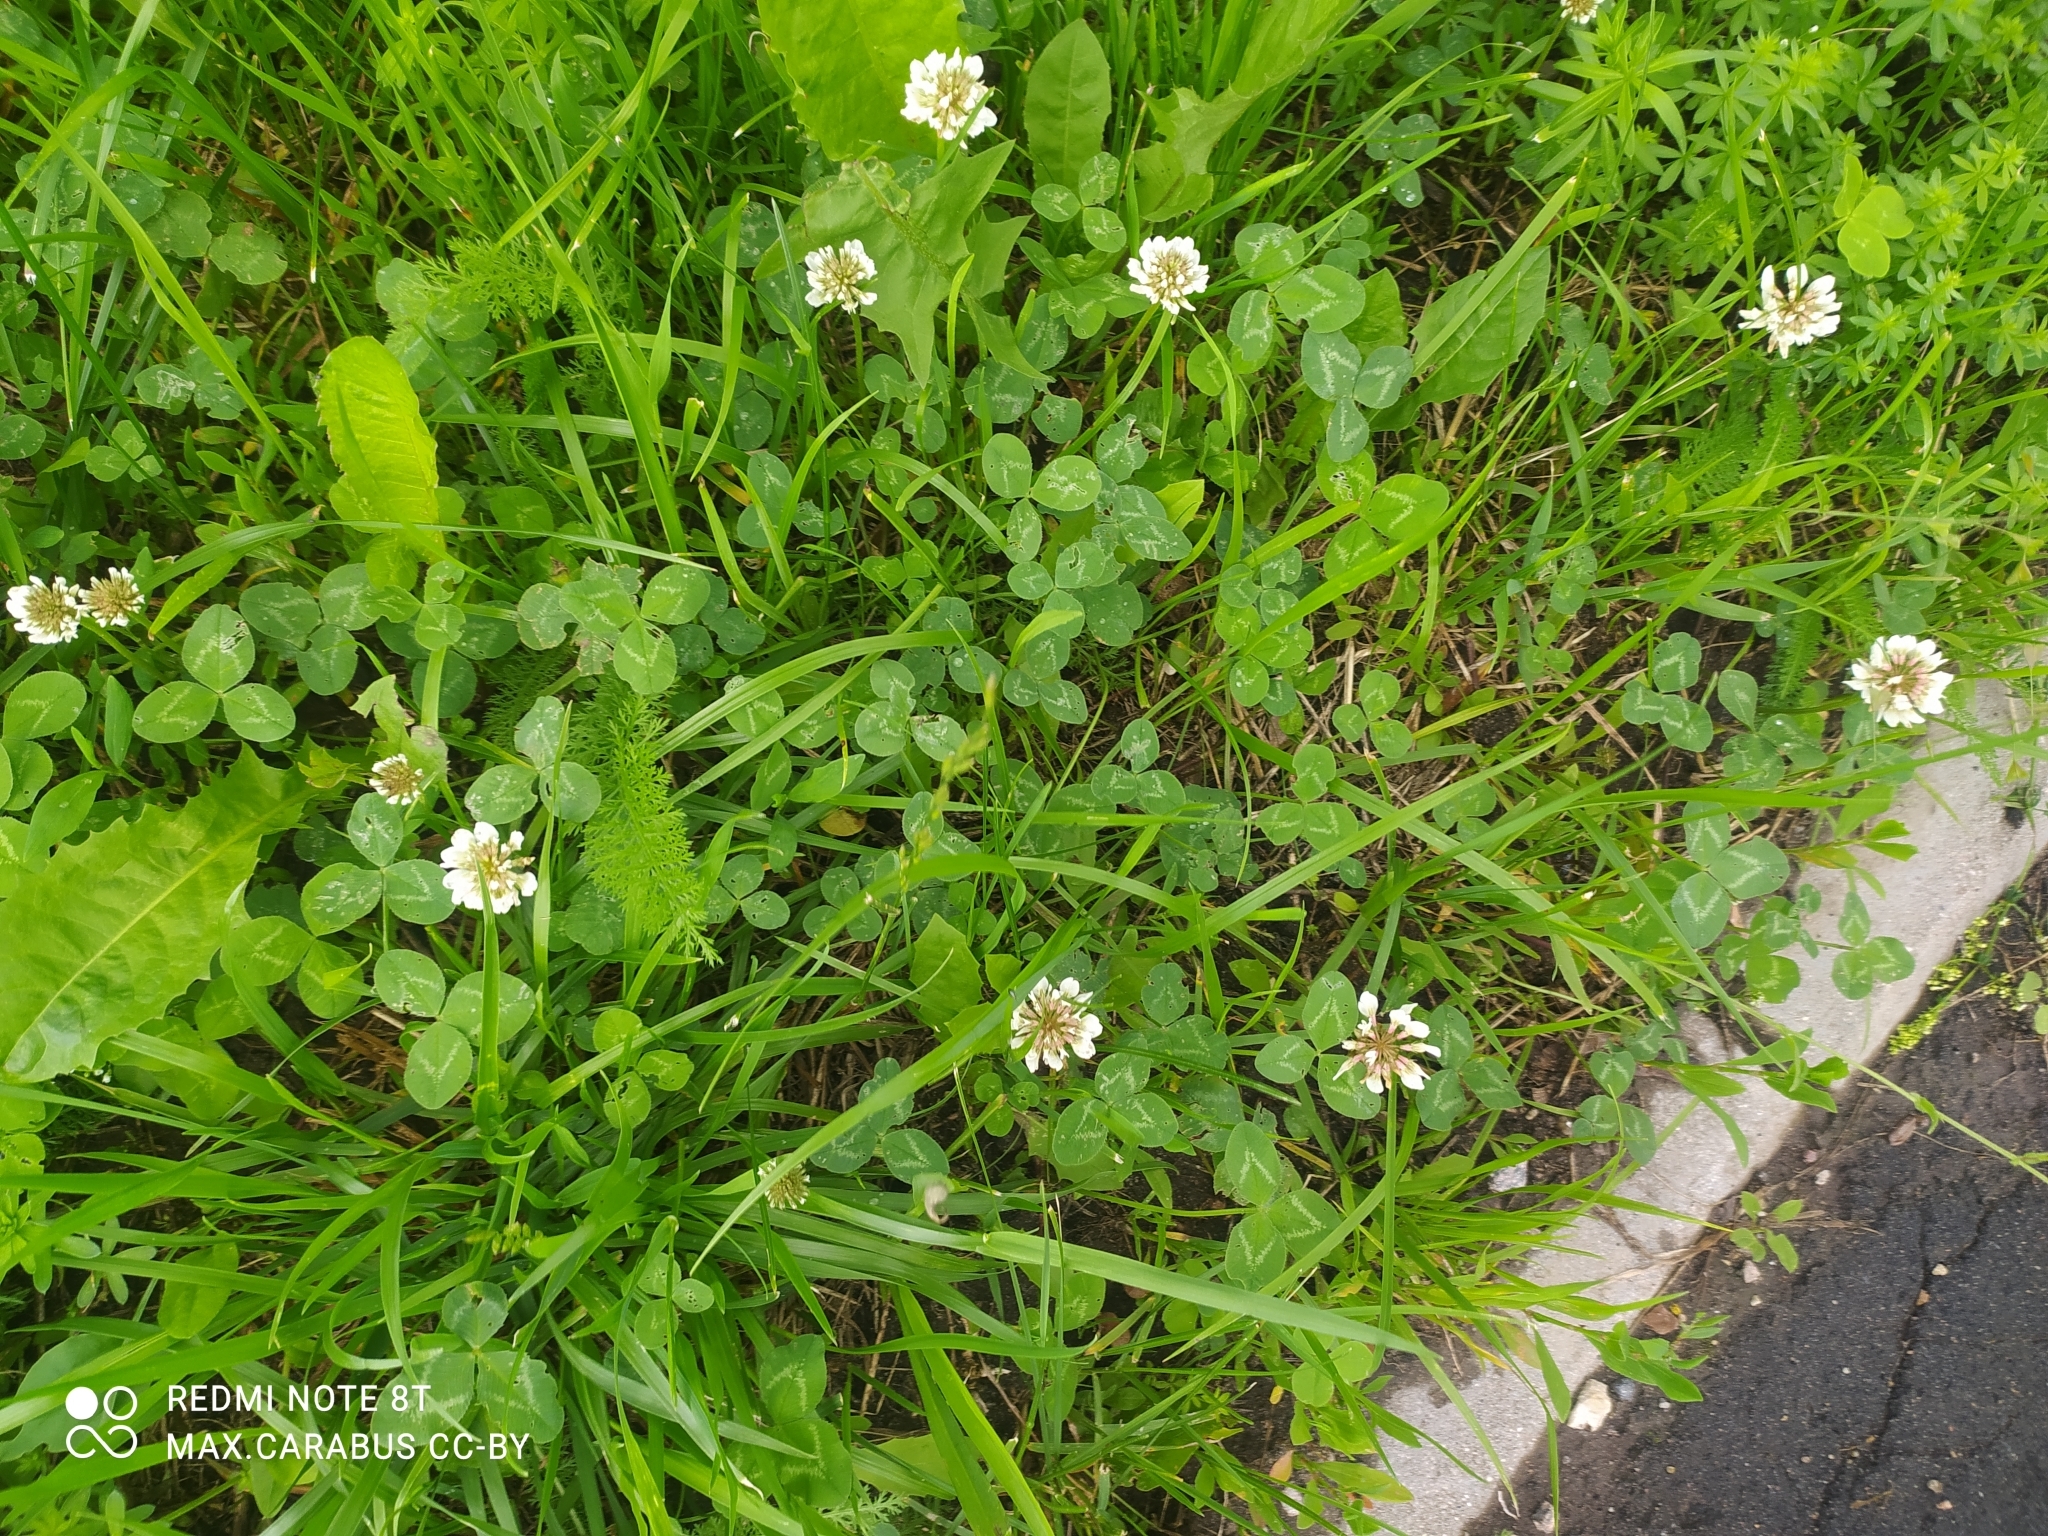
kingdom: Plantae
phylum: Tracheophyta
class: Magnoliopsida
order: Fabales
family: Fabaceae
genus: Trifolium
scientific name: Trifolium repens
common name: White clover
